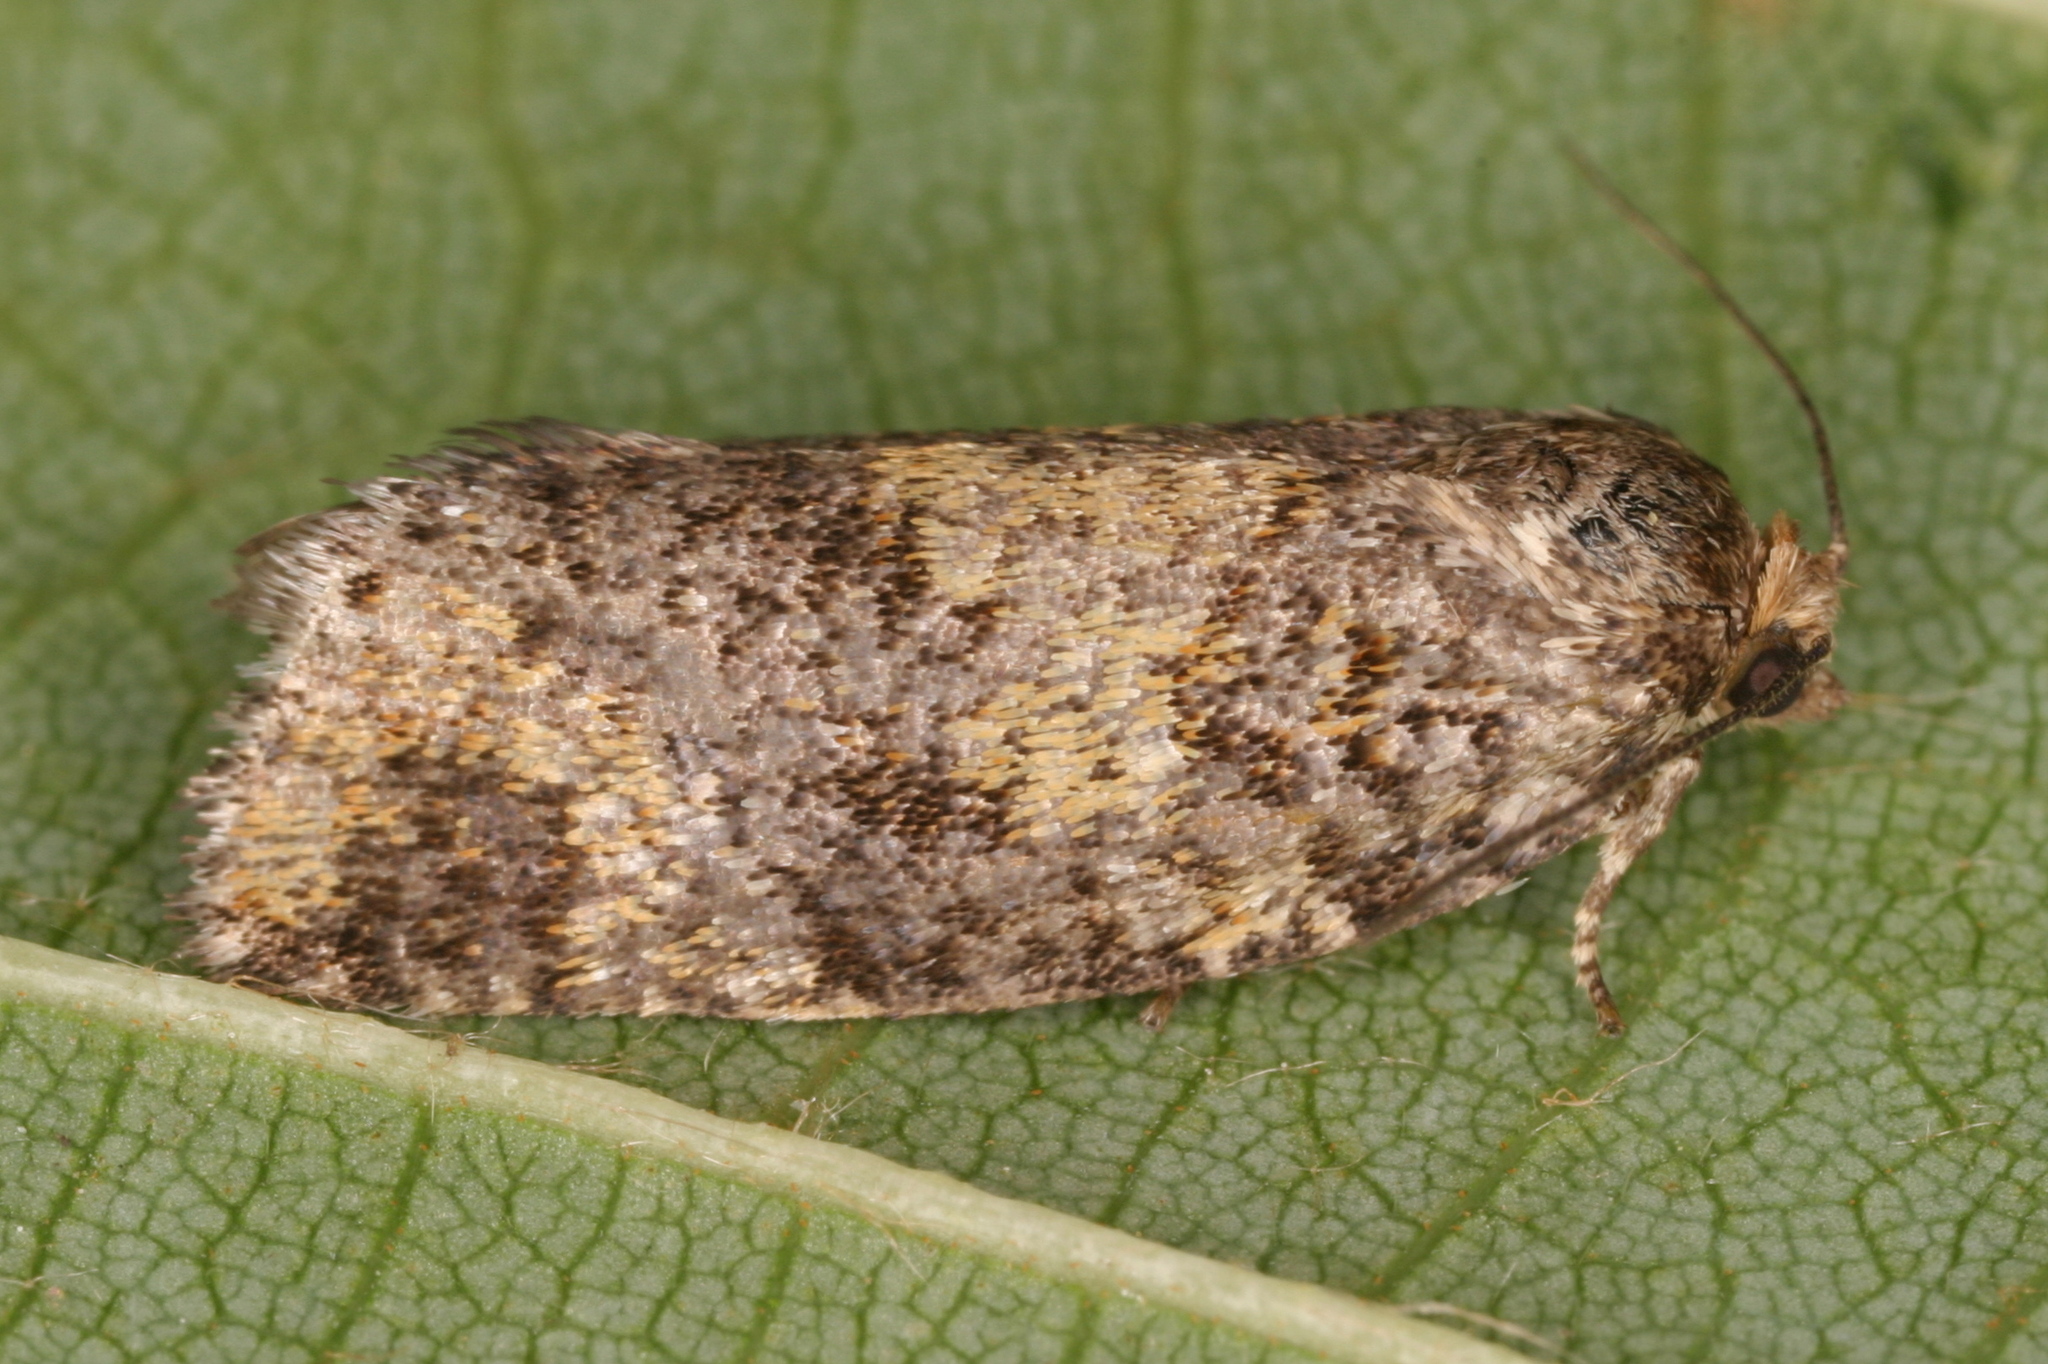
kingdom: Animalia
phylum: Arthropoda
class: Insecta
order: Lepidoptera
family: Tortricidae
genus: Ptycholomoides
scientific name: Ptycholomoides aeriferana
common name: Yellow larch tortrix
